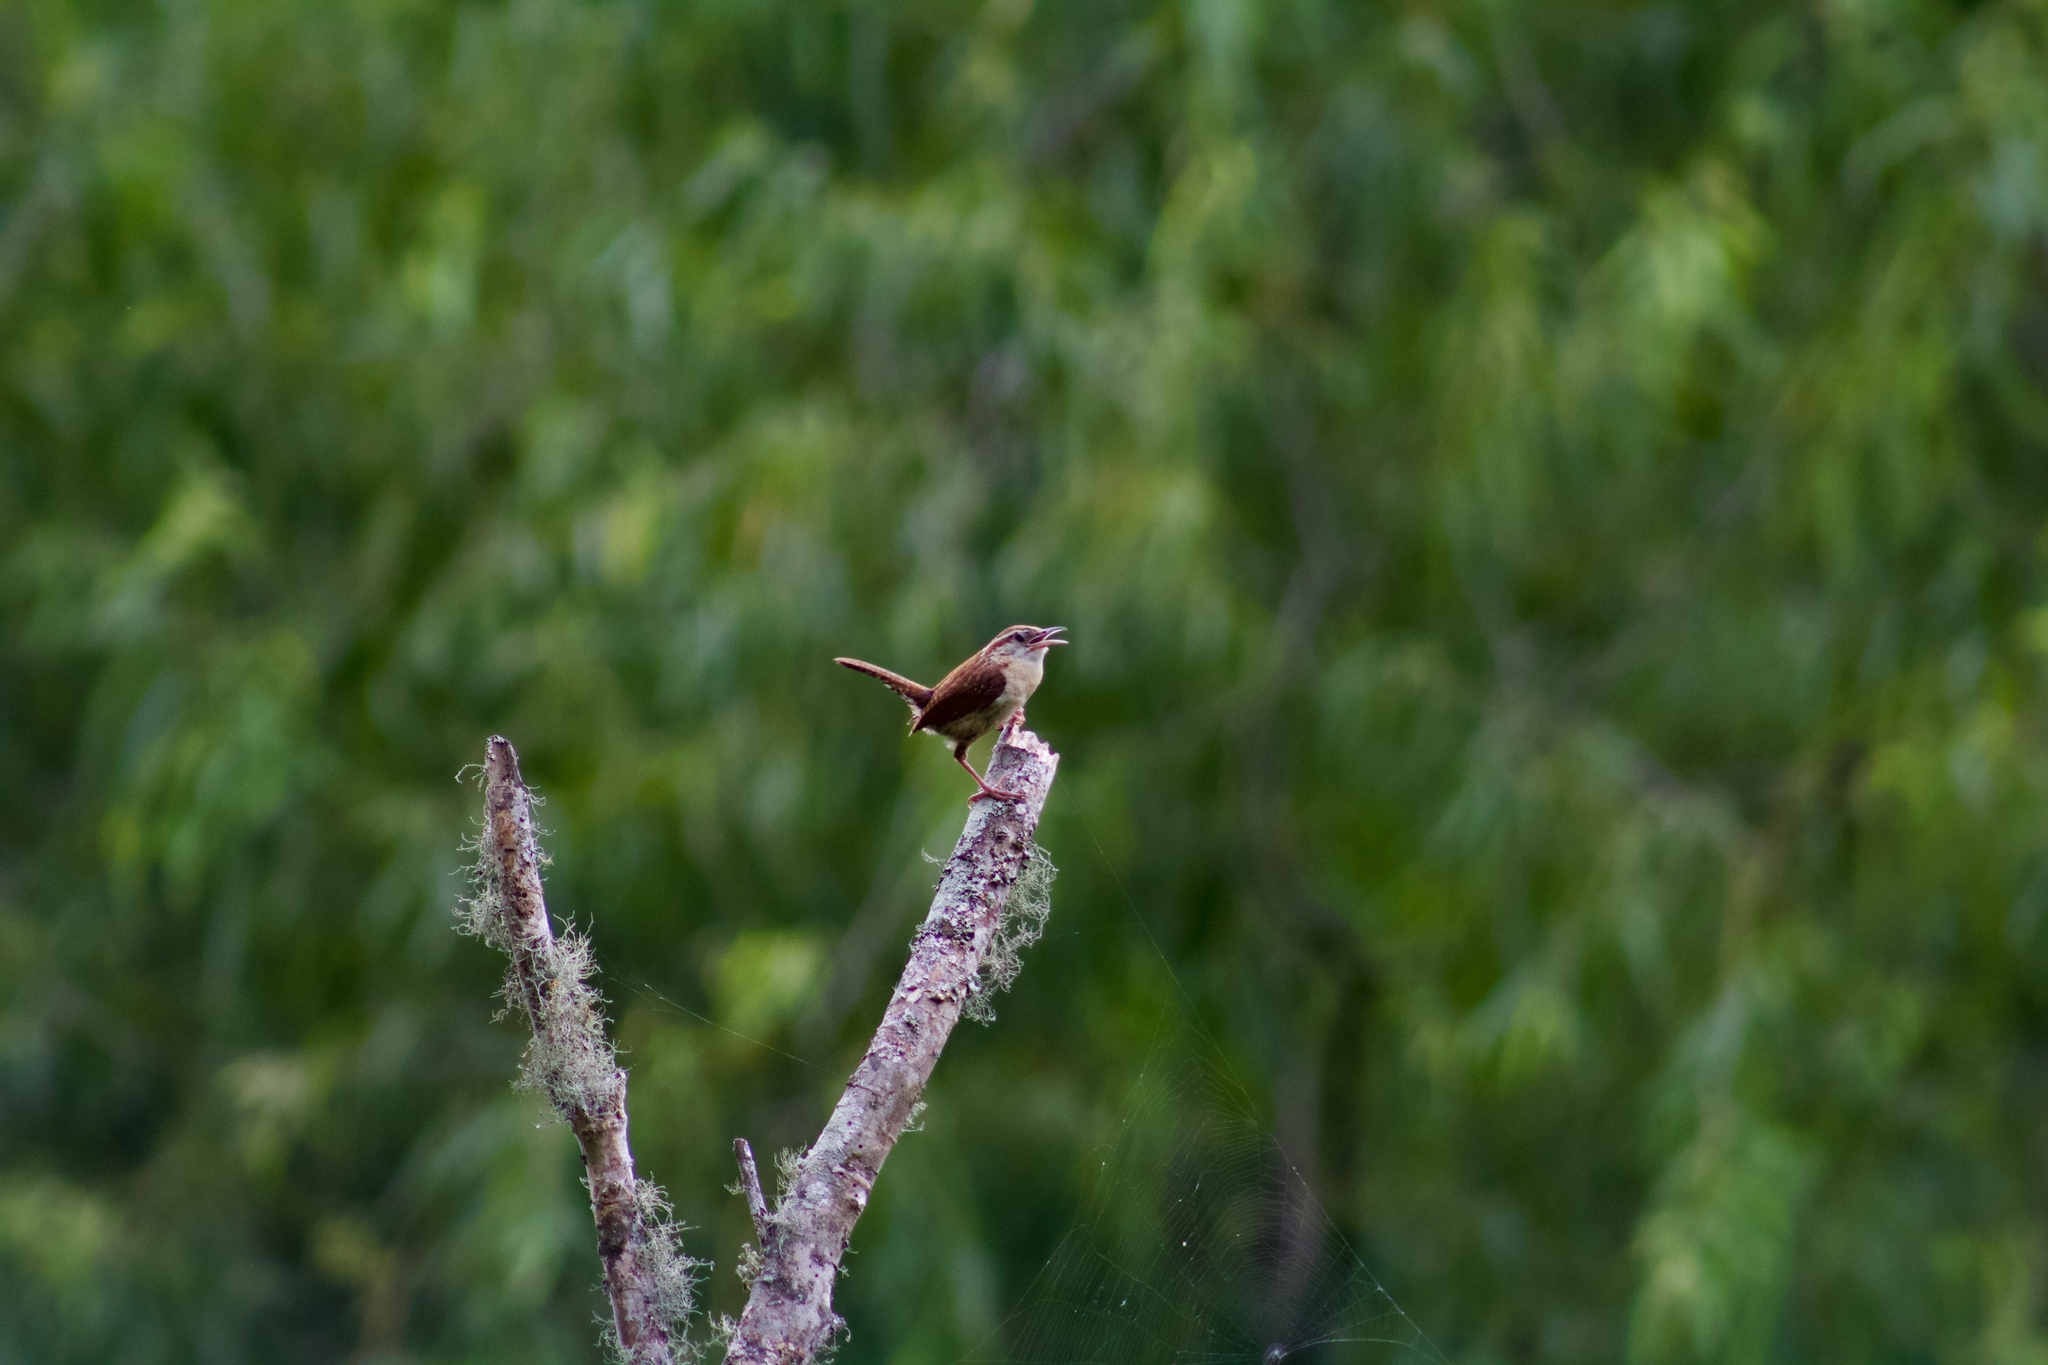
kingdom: Animalia
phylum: Chordata
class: Aves
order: Passeriformes
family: Troglodytidae
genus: Thryothorus
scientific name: Thryothorus ludovicianus
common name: Carolina wren
